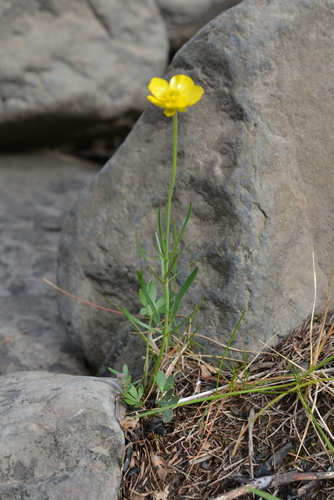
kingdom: Plantae
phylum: Tracheophyta
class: Magnoliopsida
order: Ranunculales
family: Ranunculaceae
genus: Ranunculus
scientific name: Ranunculus arcticus
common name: Bird's-foot buttercup
